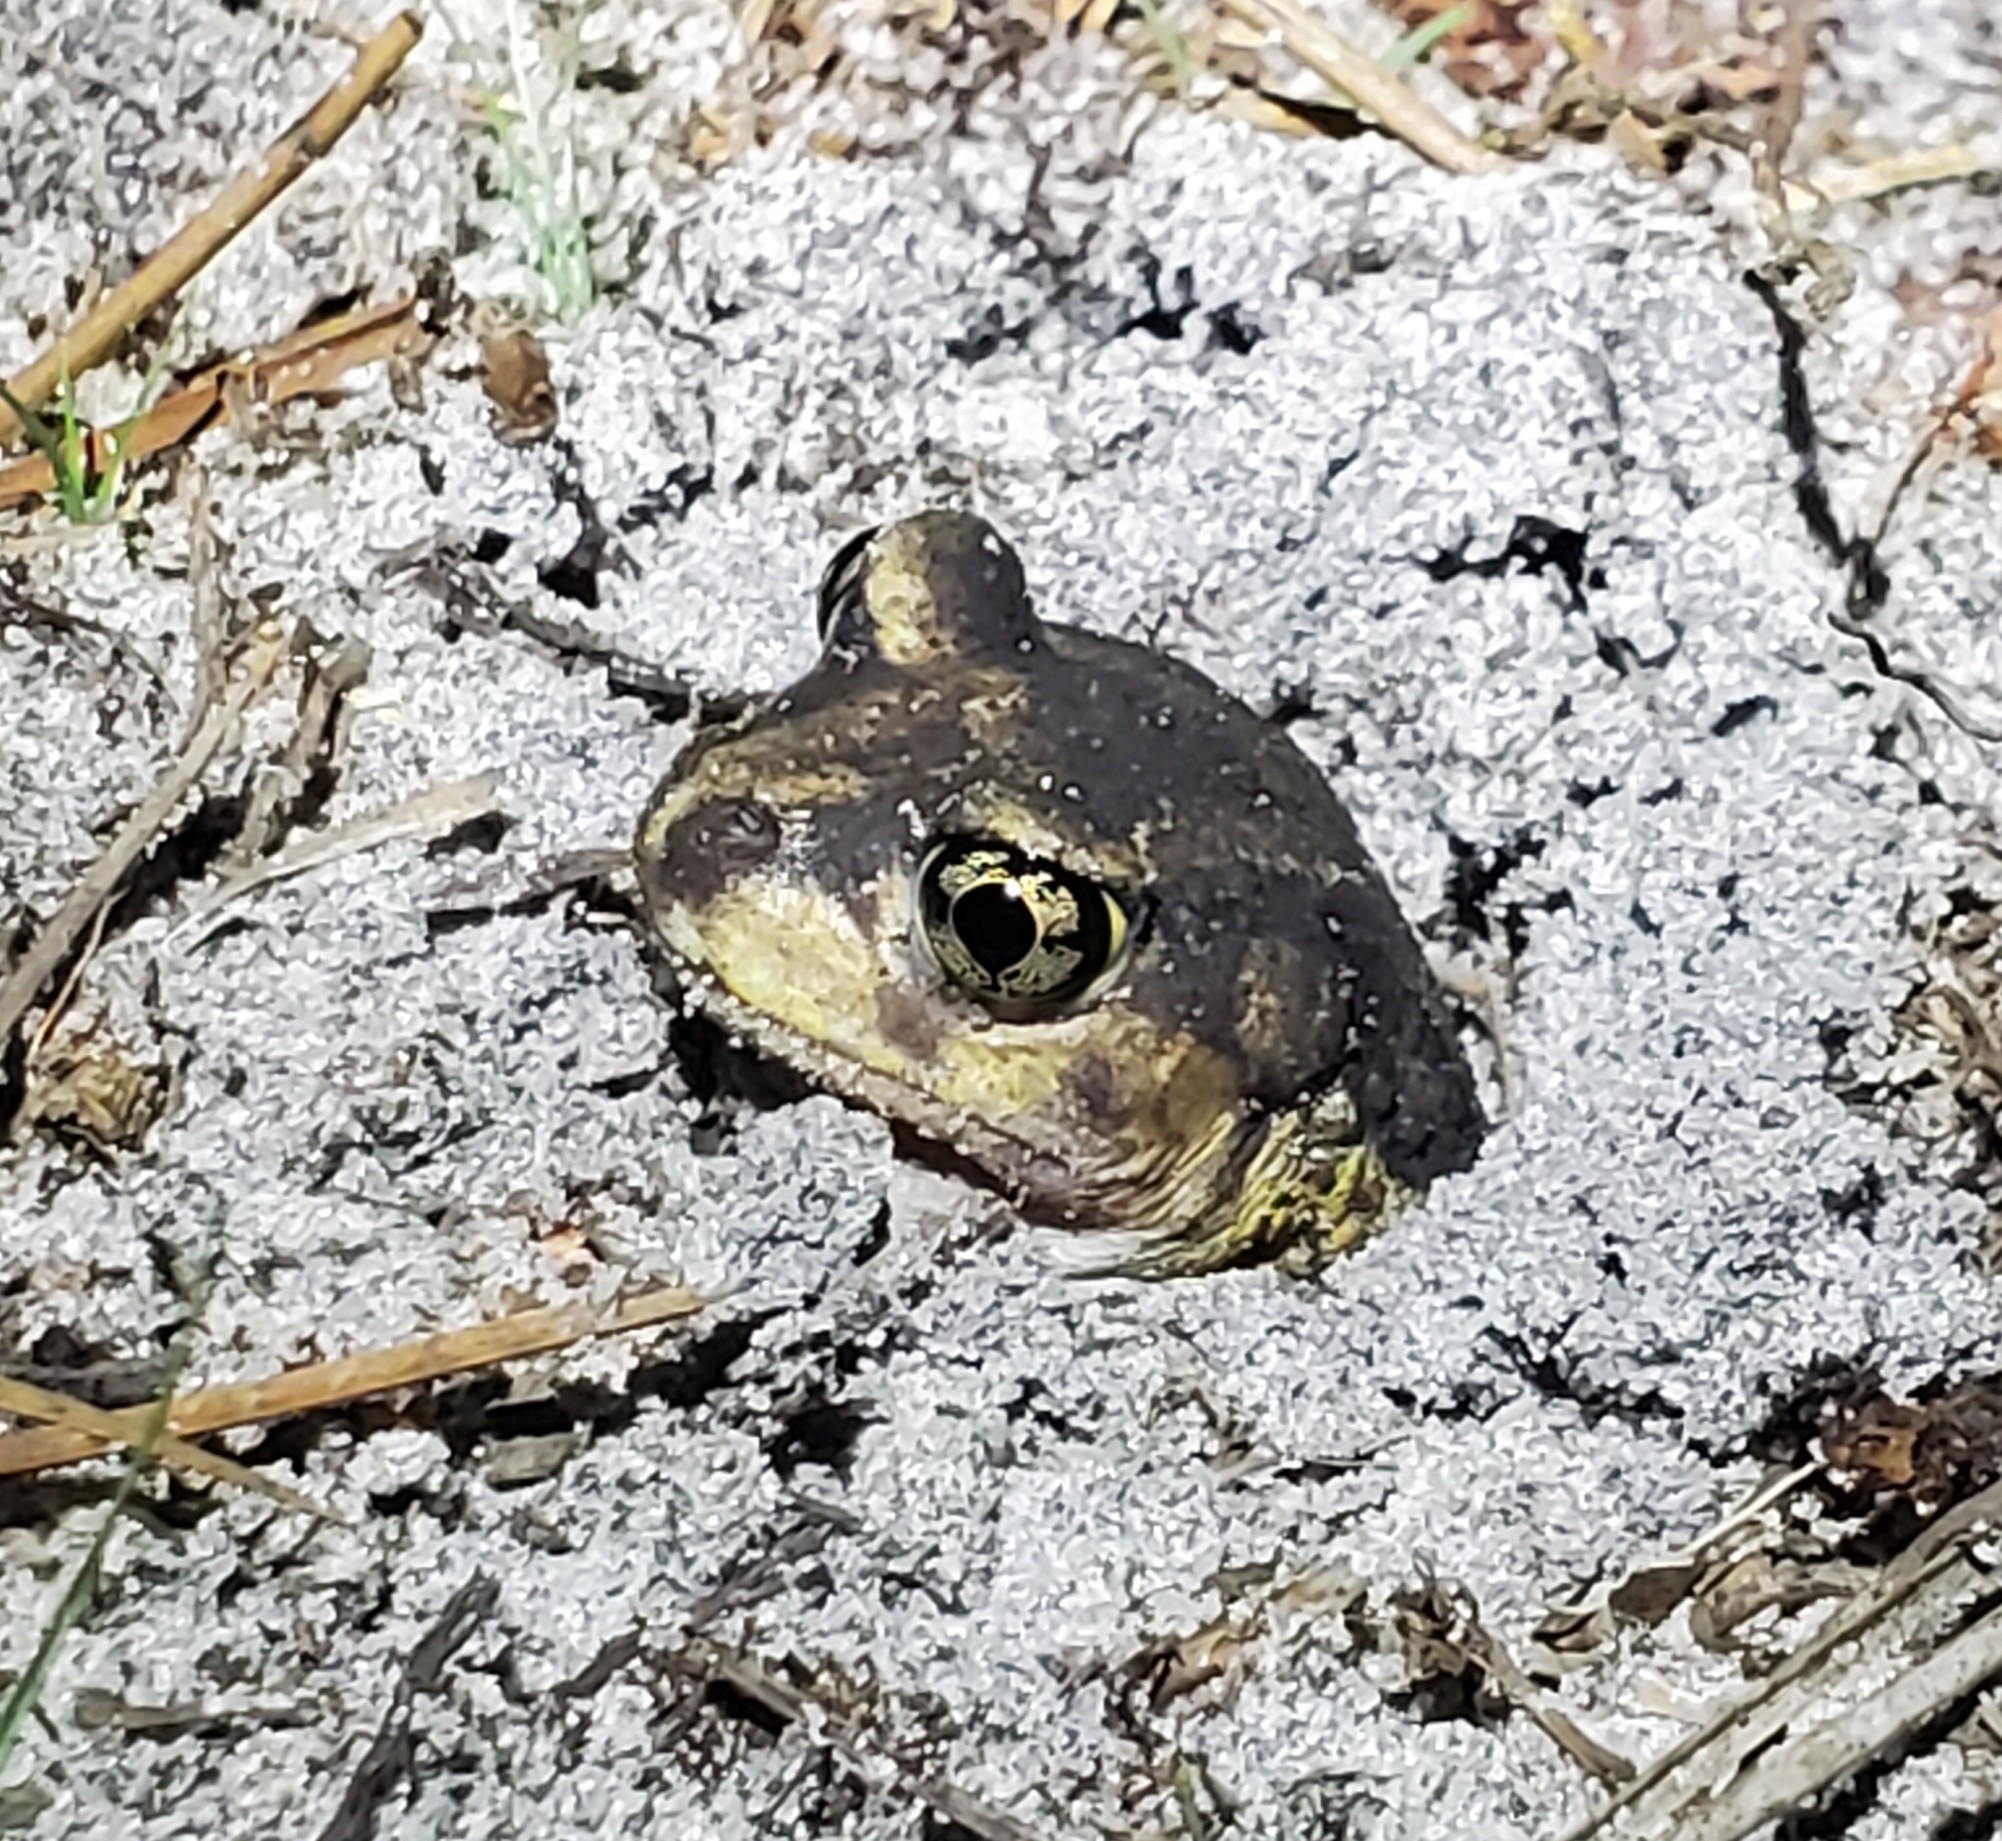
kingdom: Animalia
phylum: Chordata
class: Amphibia
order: Anura
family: Scaphiopodidae
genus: Scaphiopus
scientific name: Scaphiopus holbrookii
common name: Eastern spadefoot toad
